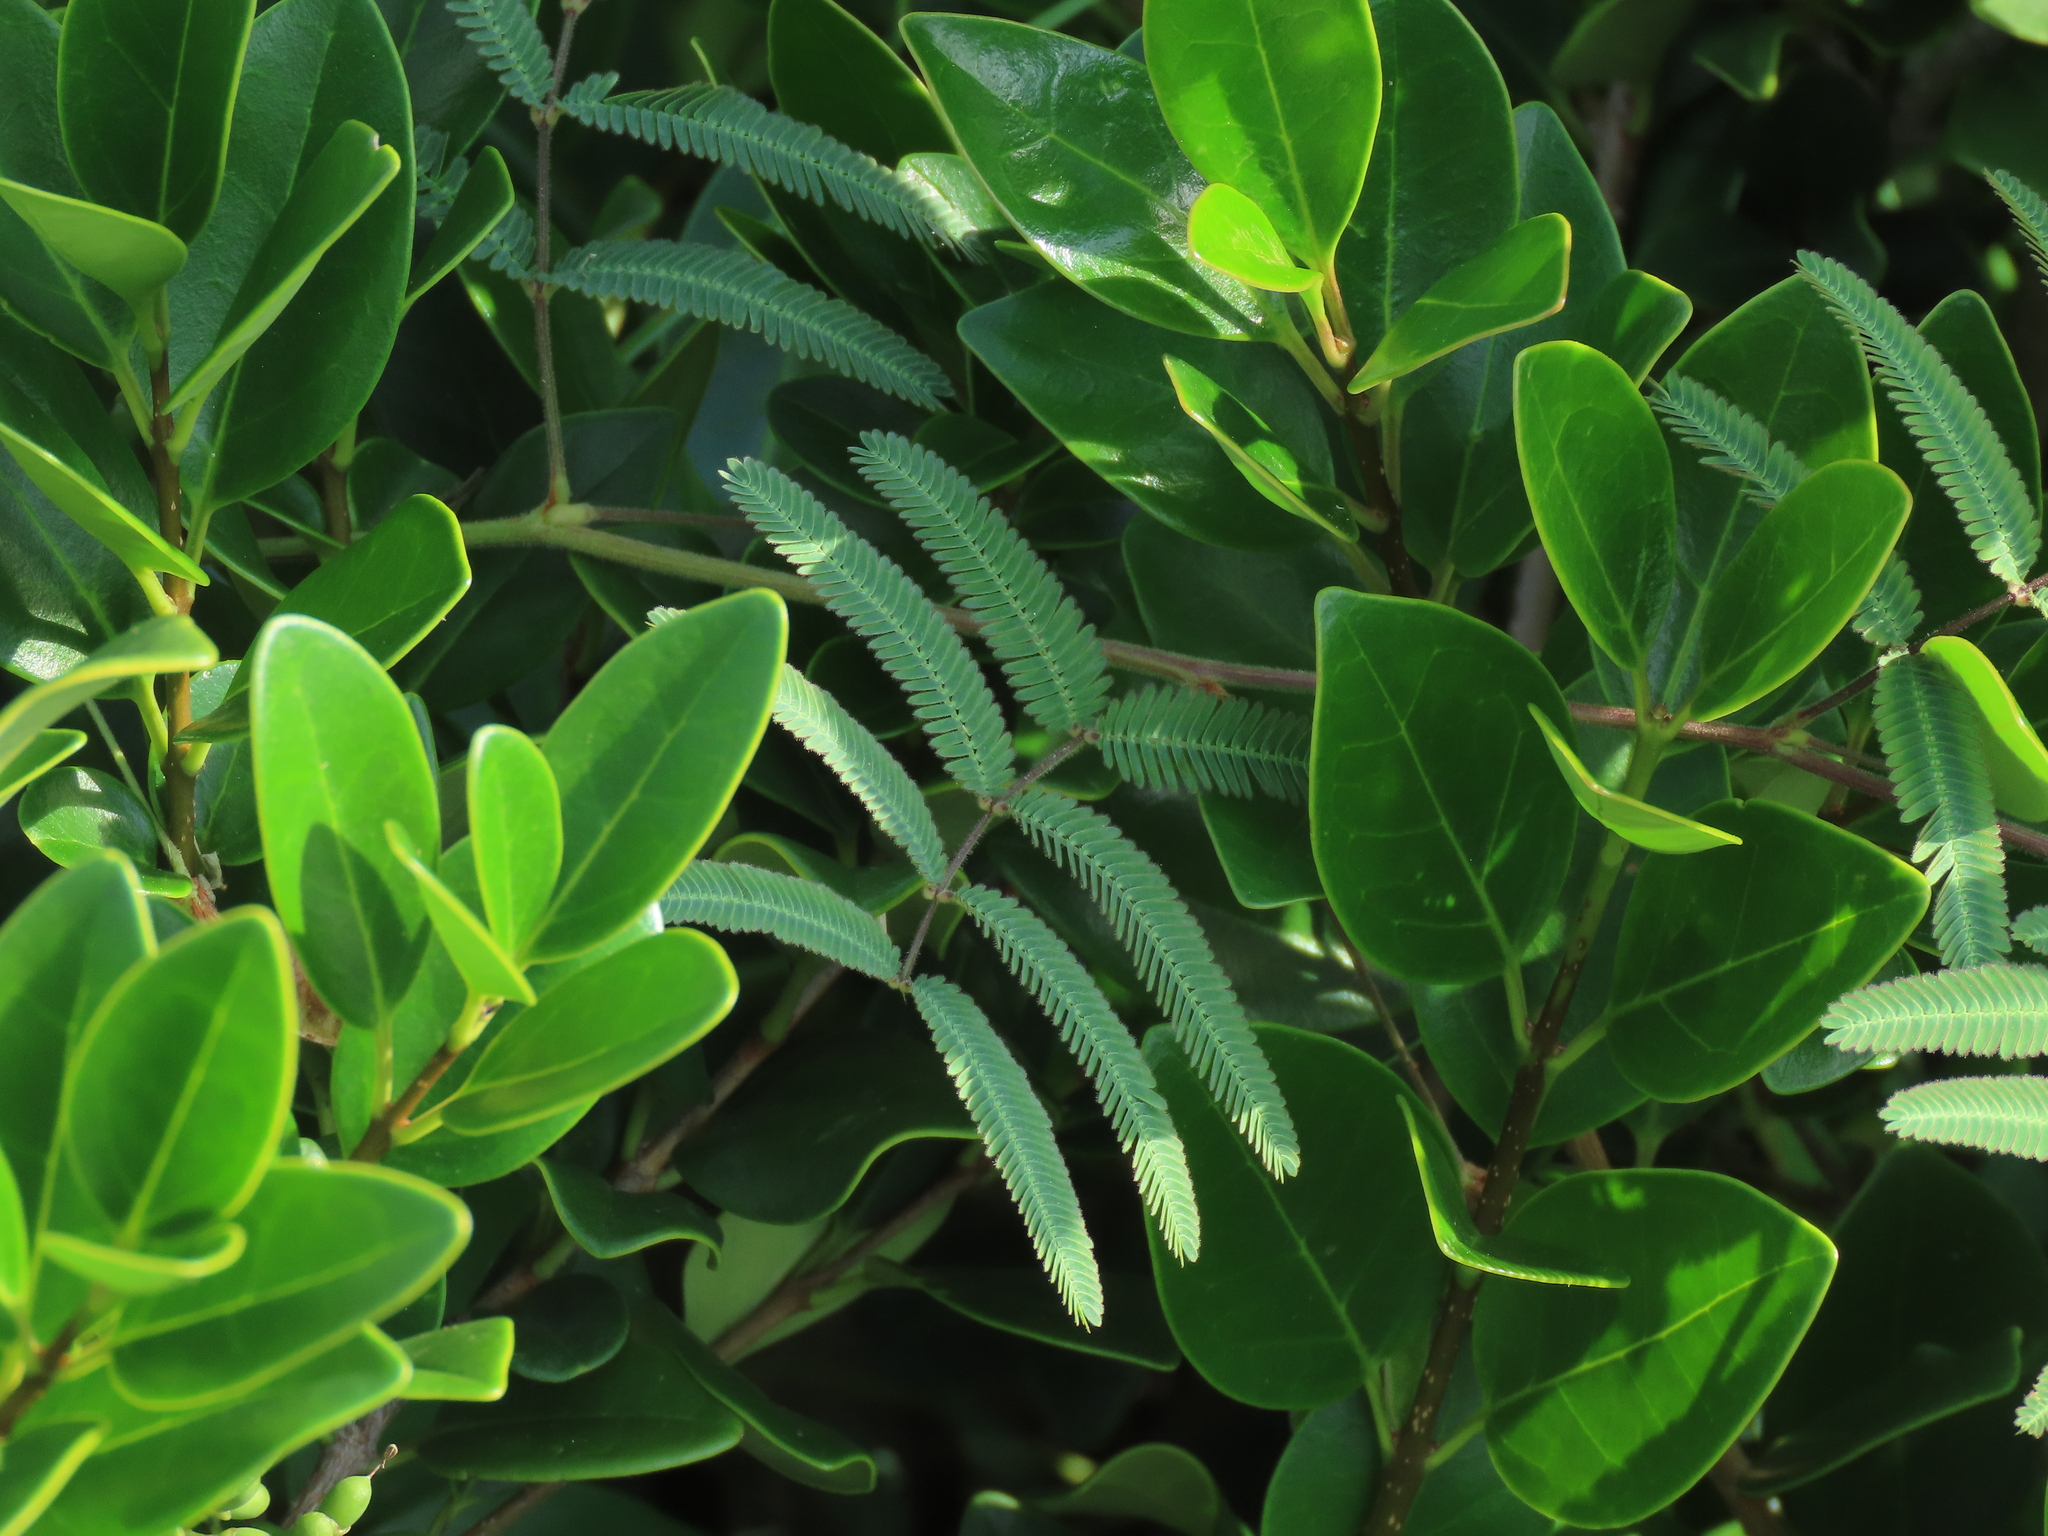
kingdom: Plantae
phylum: Tracheophyta
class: Magnoliopsida
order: Fabales
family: Fabaceae
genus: Neptunia
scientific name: Neptunia pubescens
